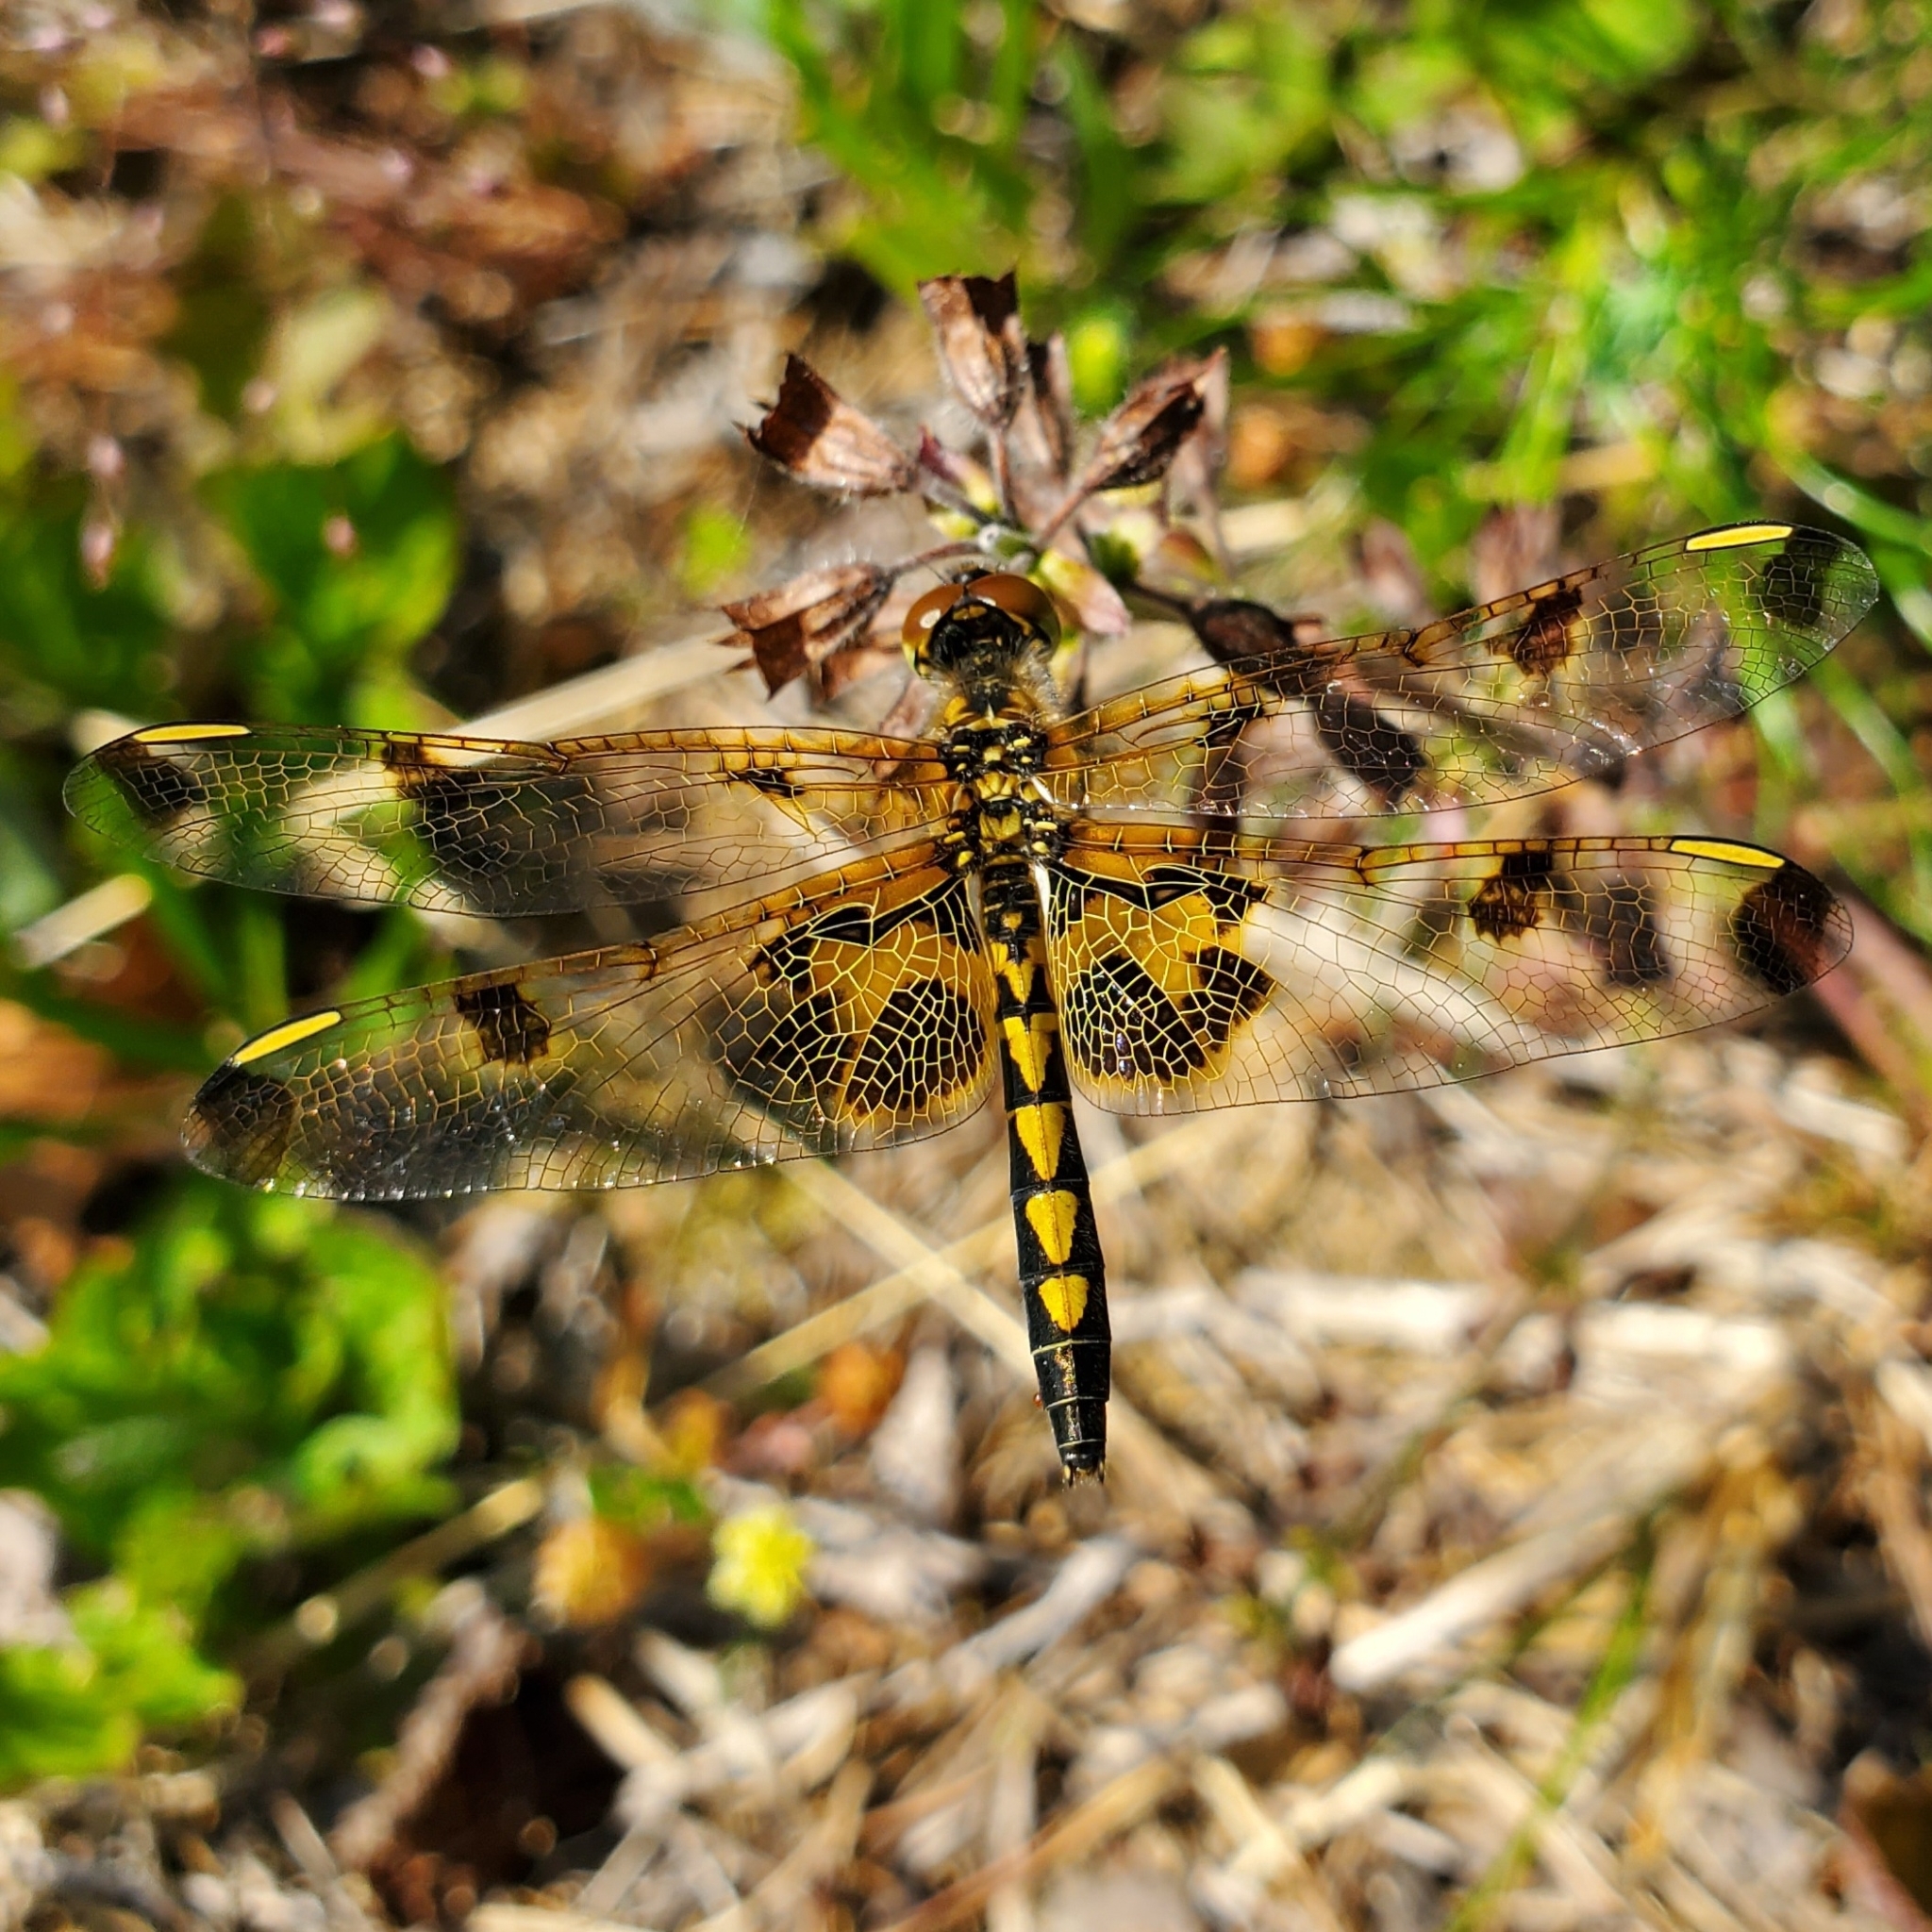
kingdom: Animalia
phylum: Arthropoda
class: Insecta
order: Odonata
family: Libellulidae
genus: Celithemis
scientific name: Celithemis elisa
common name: Calico pennant
